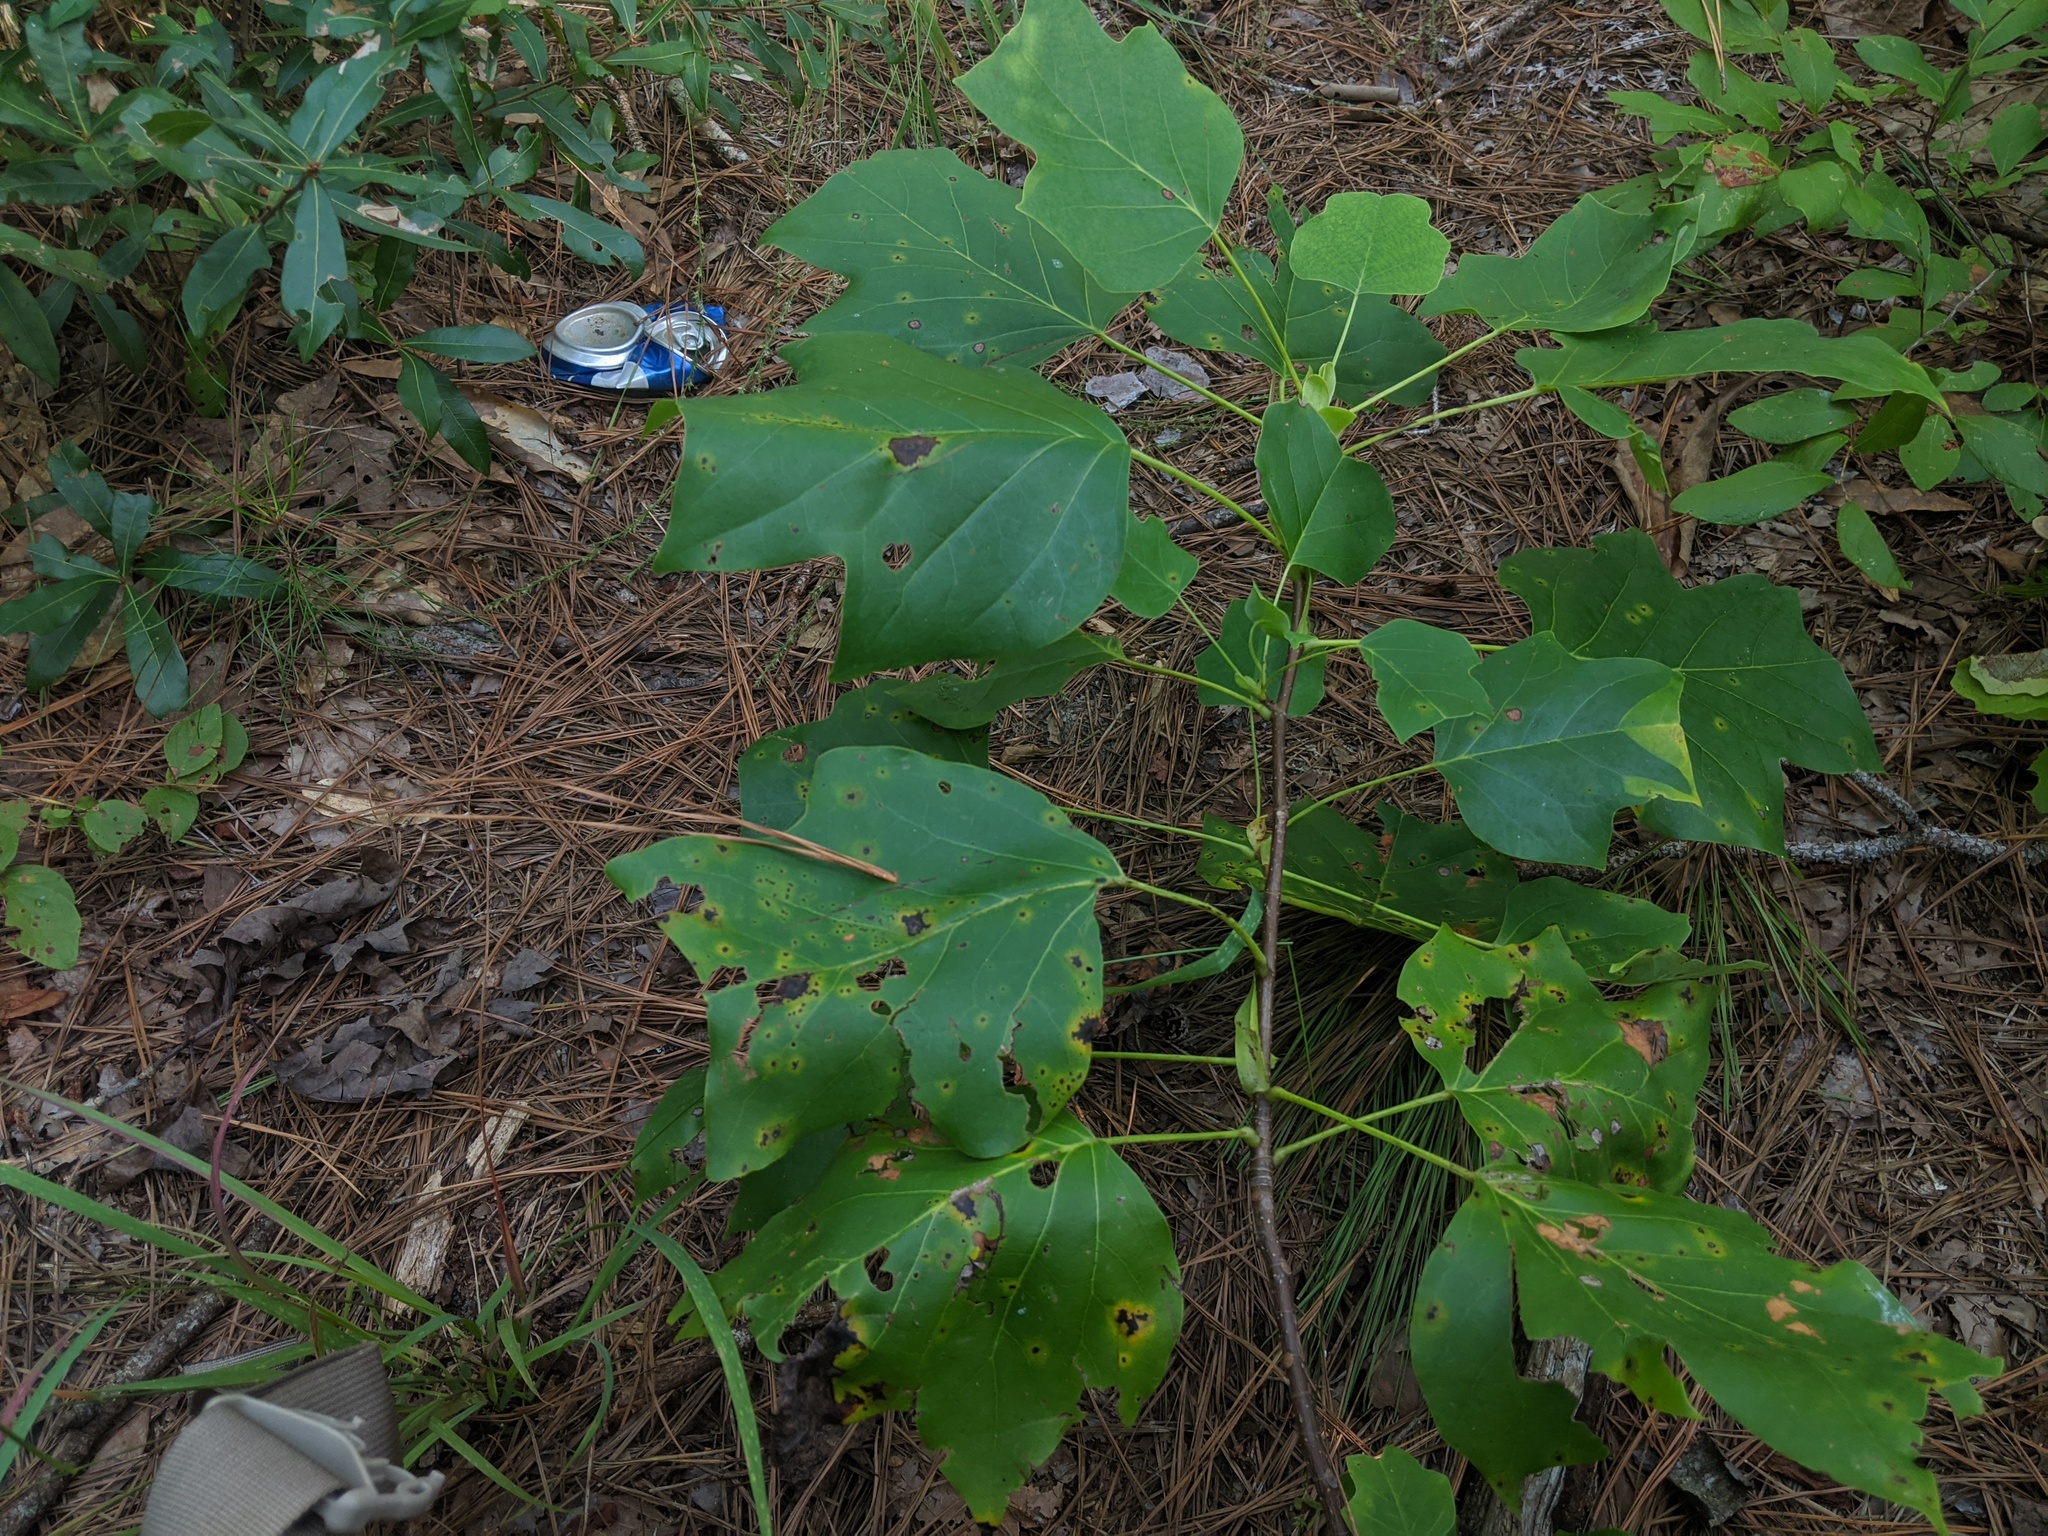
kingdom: Plantae
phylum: Tracheophyta
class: Magnoliopsida
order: Magnoliales
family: Magnoliaceae
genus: Liriodendron
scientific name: Liriodendron tulipifera
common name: Tulip tree
